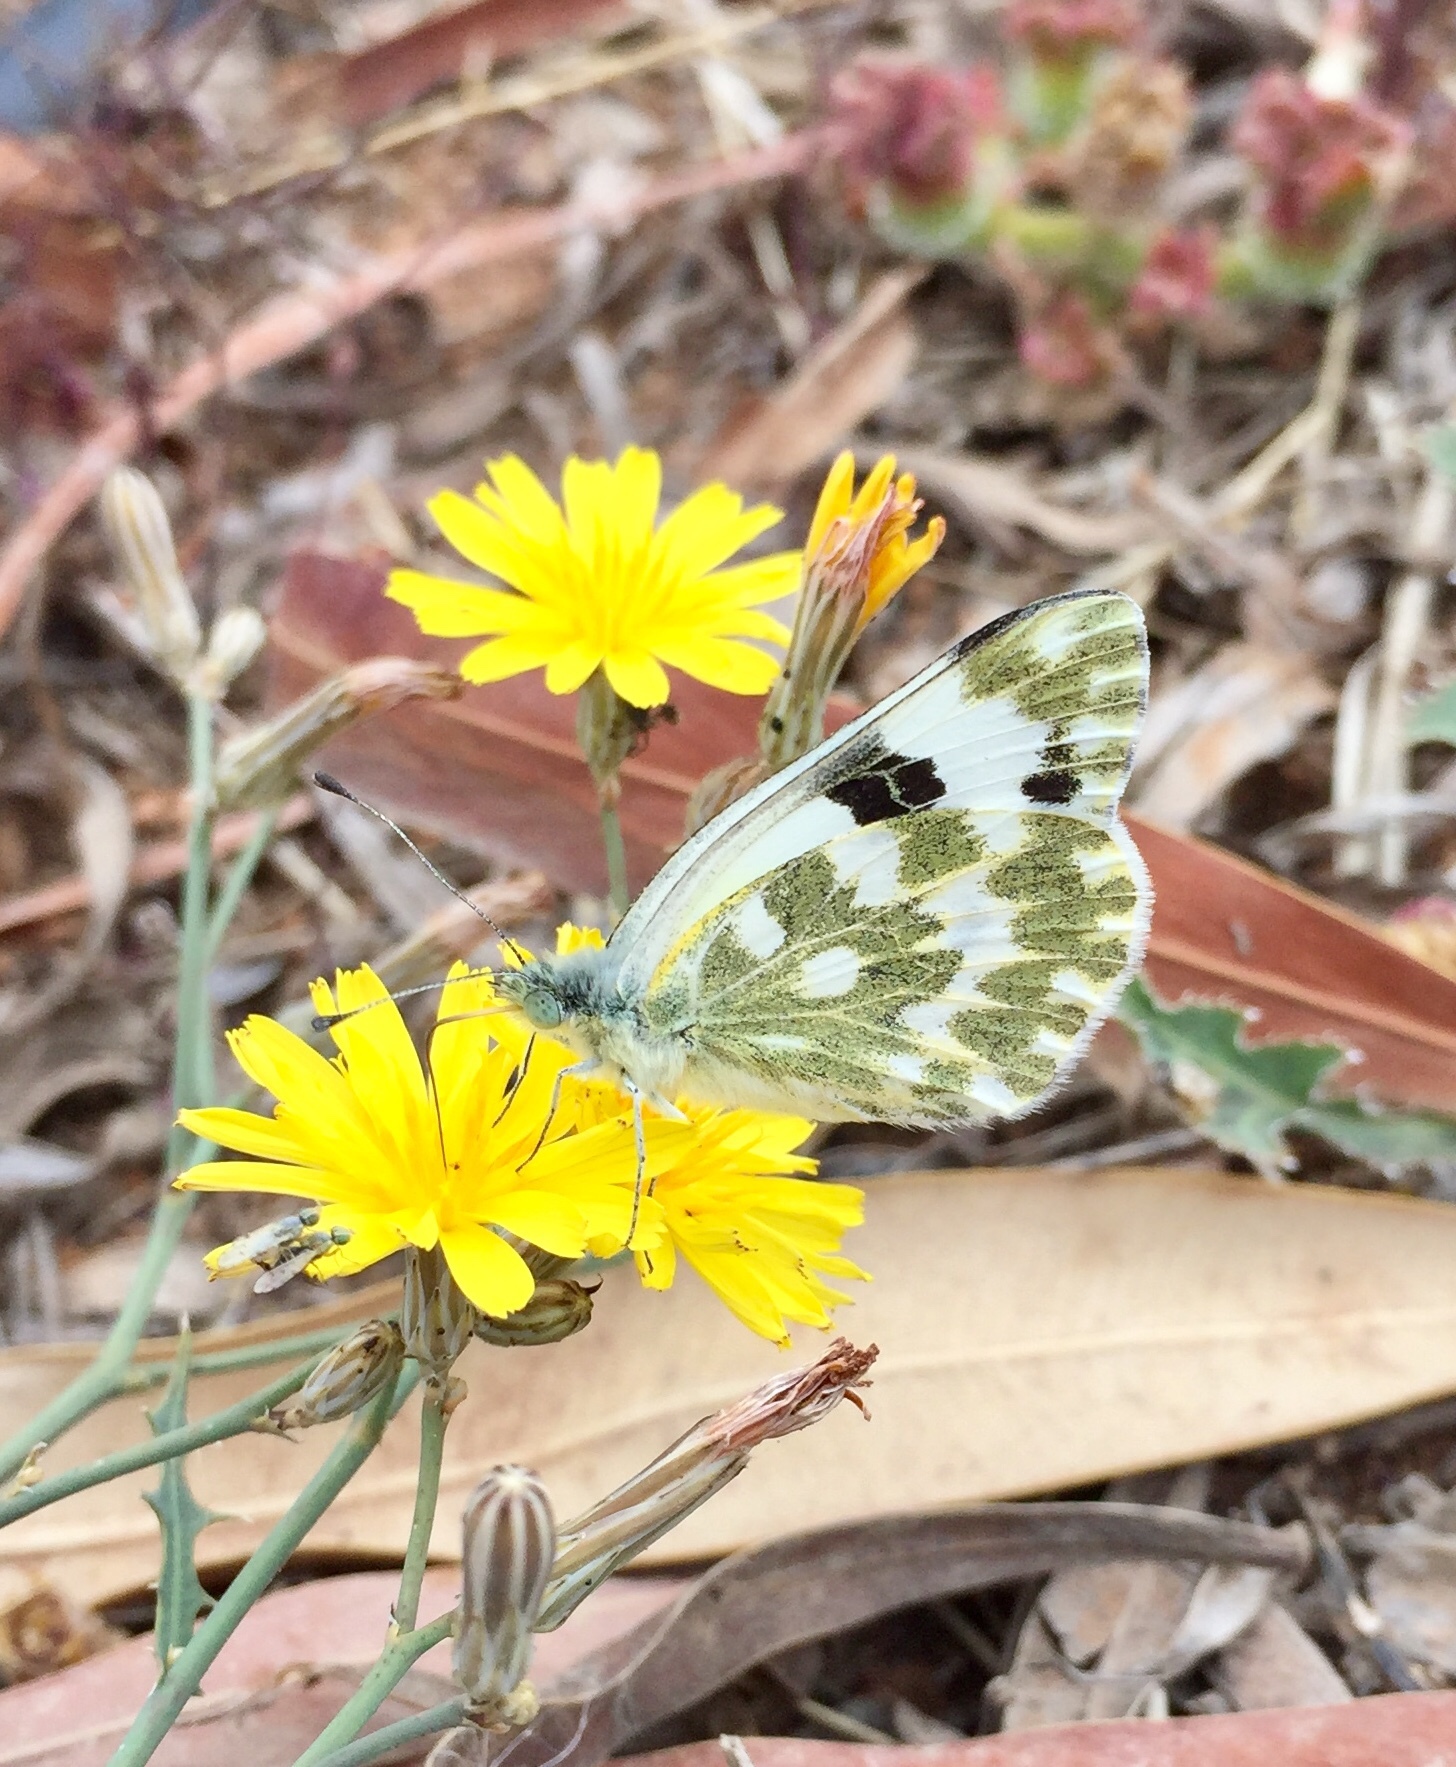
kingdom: Animalia
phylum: Arthropoda
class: Insecta
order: Lepidoptera
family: Pieridae
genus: Pontia
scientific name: Pontia daplidice
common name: Bath white
